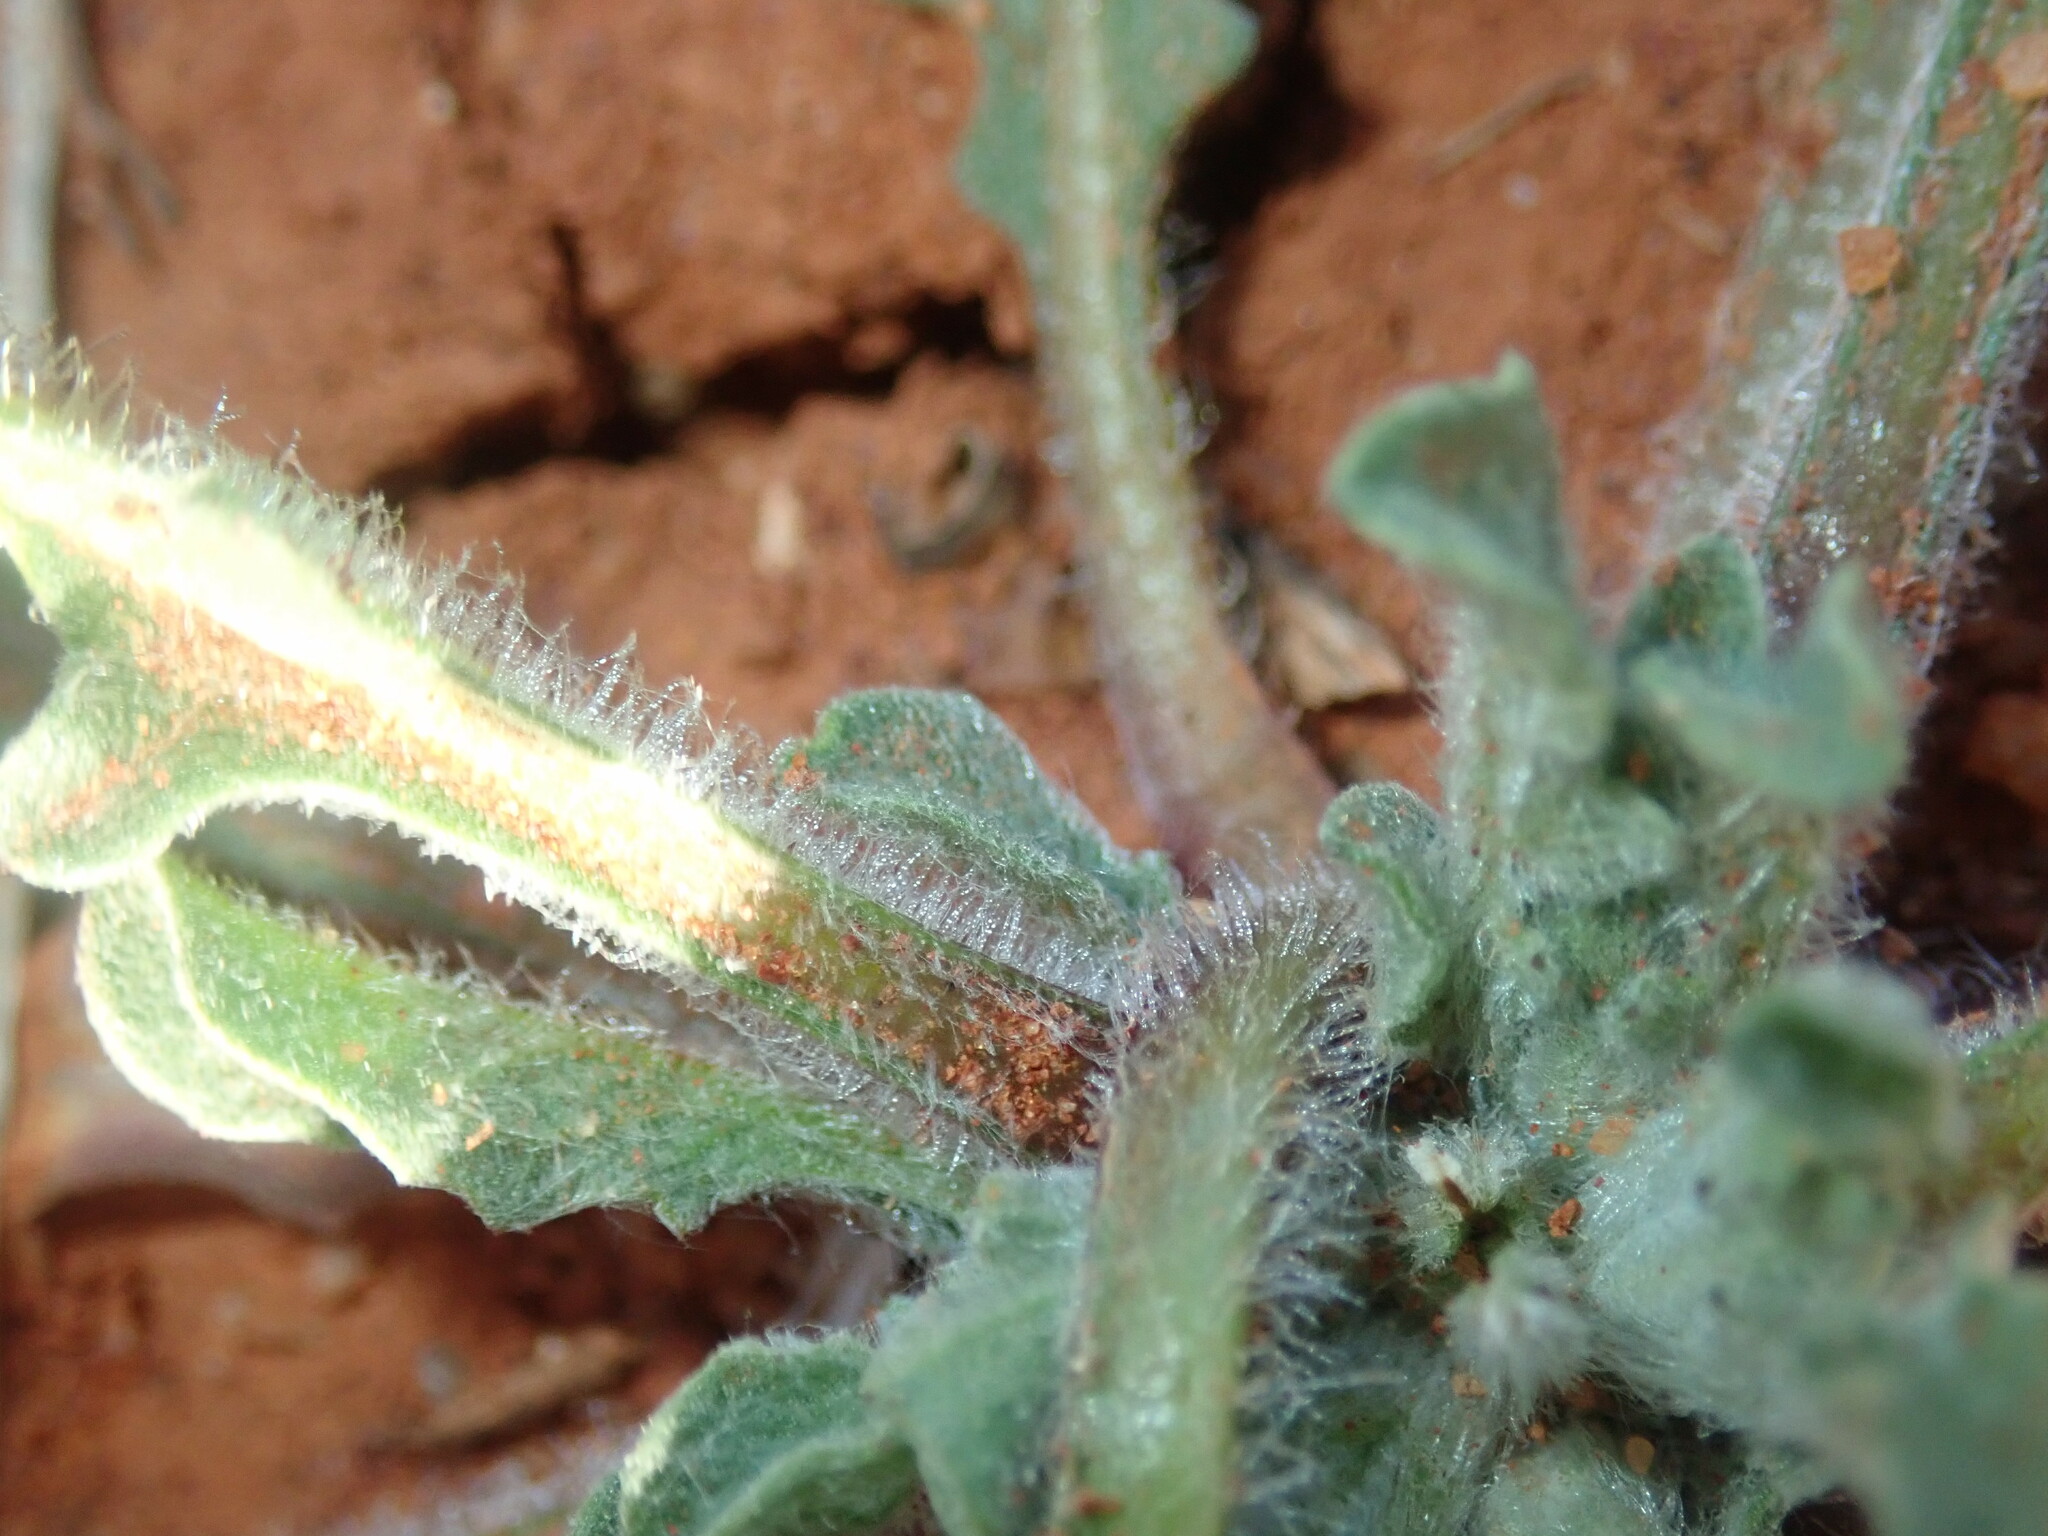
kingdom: Plantae
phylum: Tracheophyta
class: Magnoliopsida
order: Asterales
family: Asteraceae
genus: Centaurea
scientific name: Centaurea melitensis
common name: Maltese star-thistle
